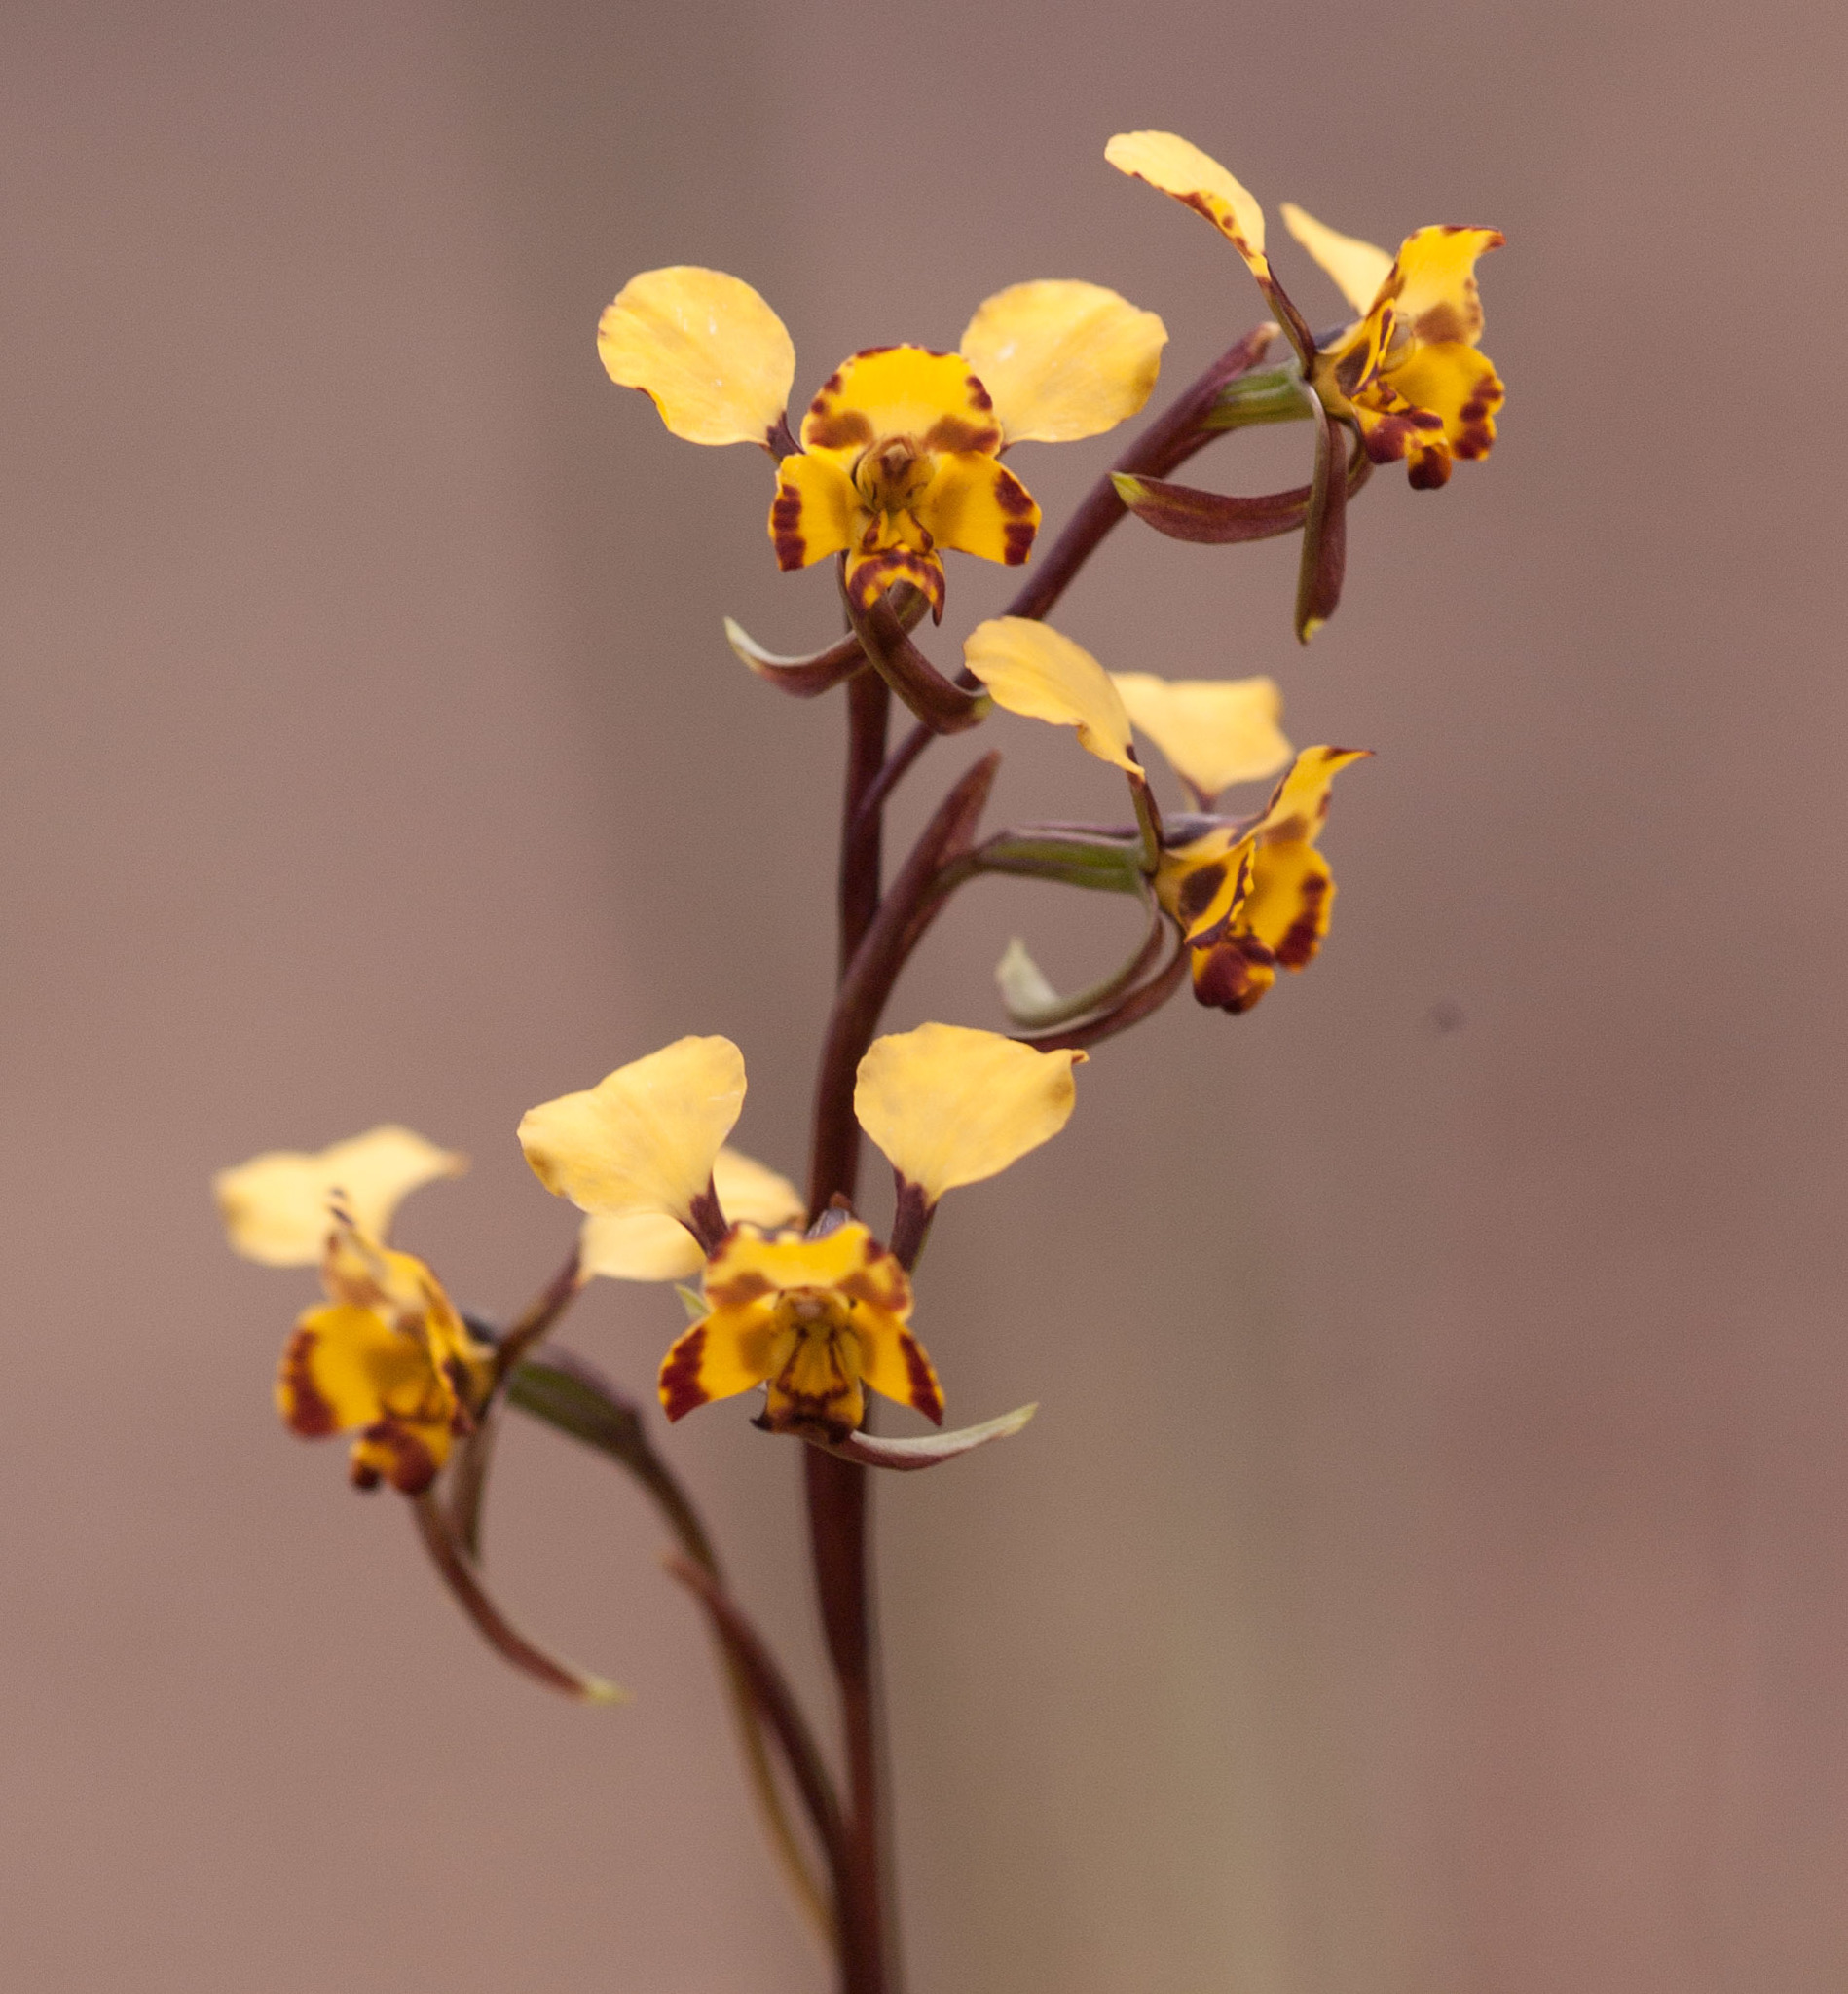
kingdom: Plantae
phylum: Tracheophyta
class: Liliopsida
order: Asparagales
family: Orchidaceae
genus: Diuris
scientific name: Diuris pardina
